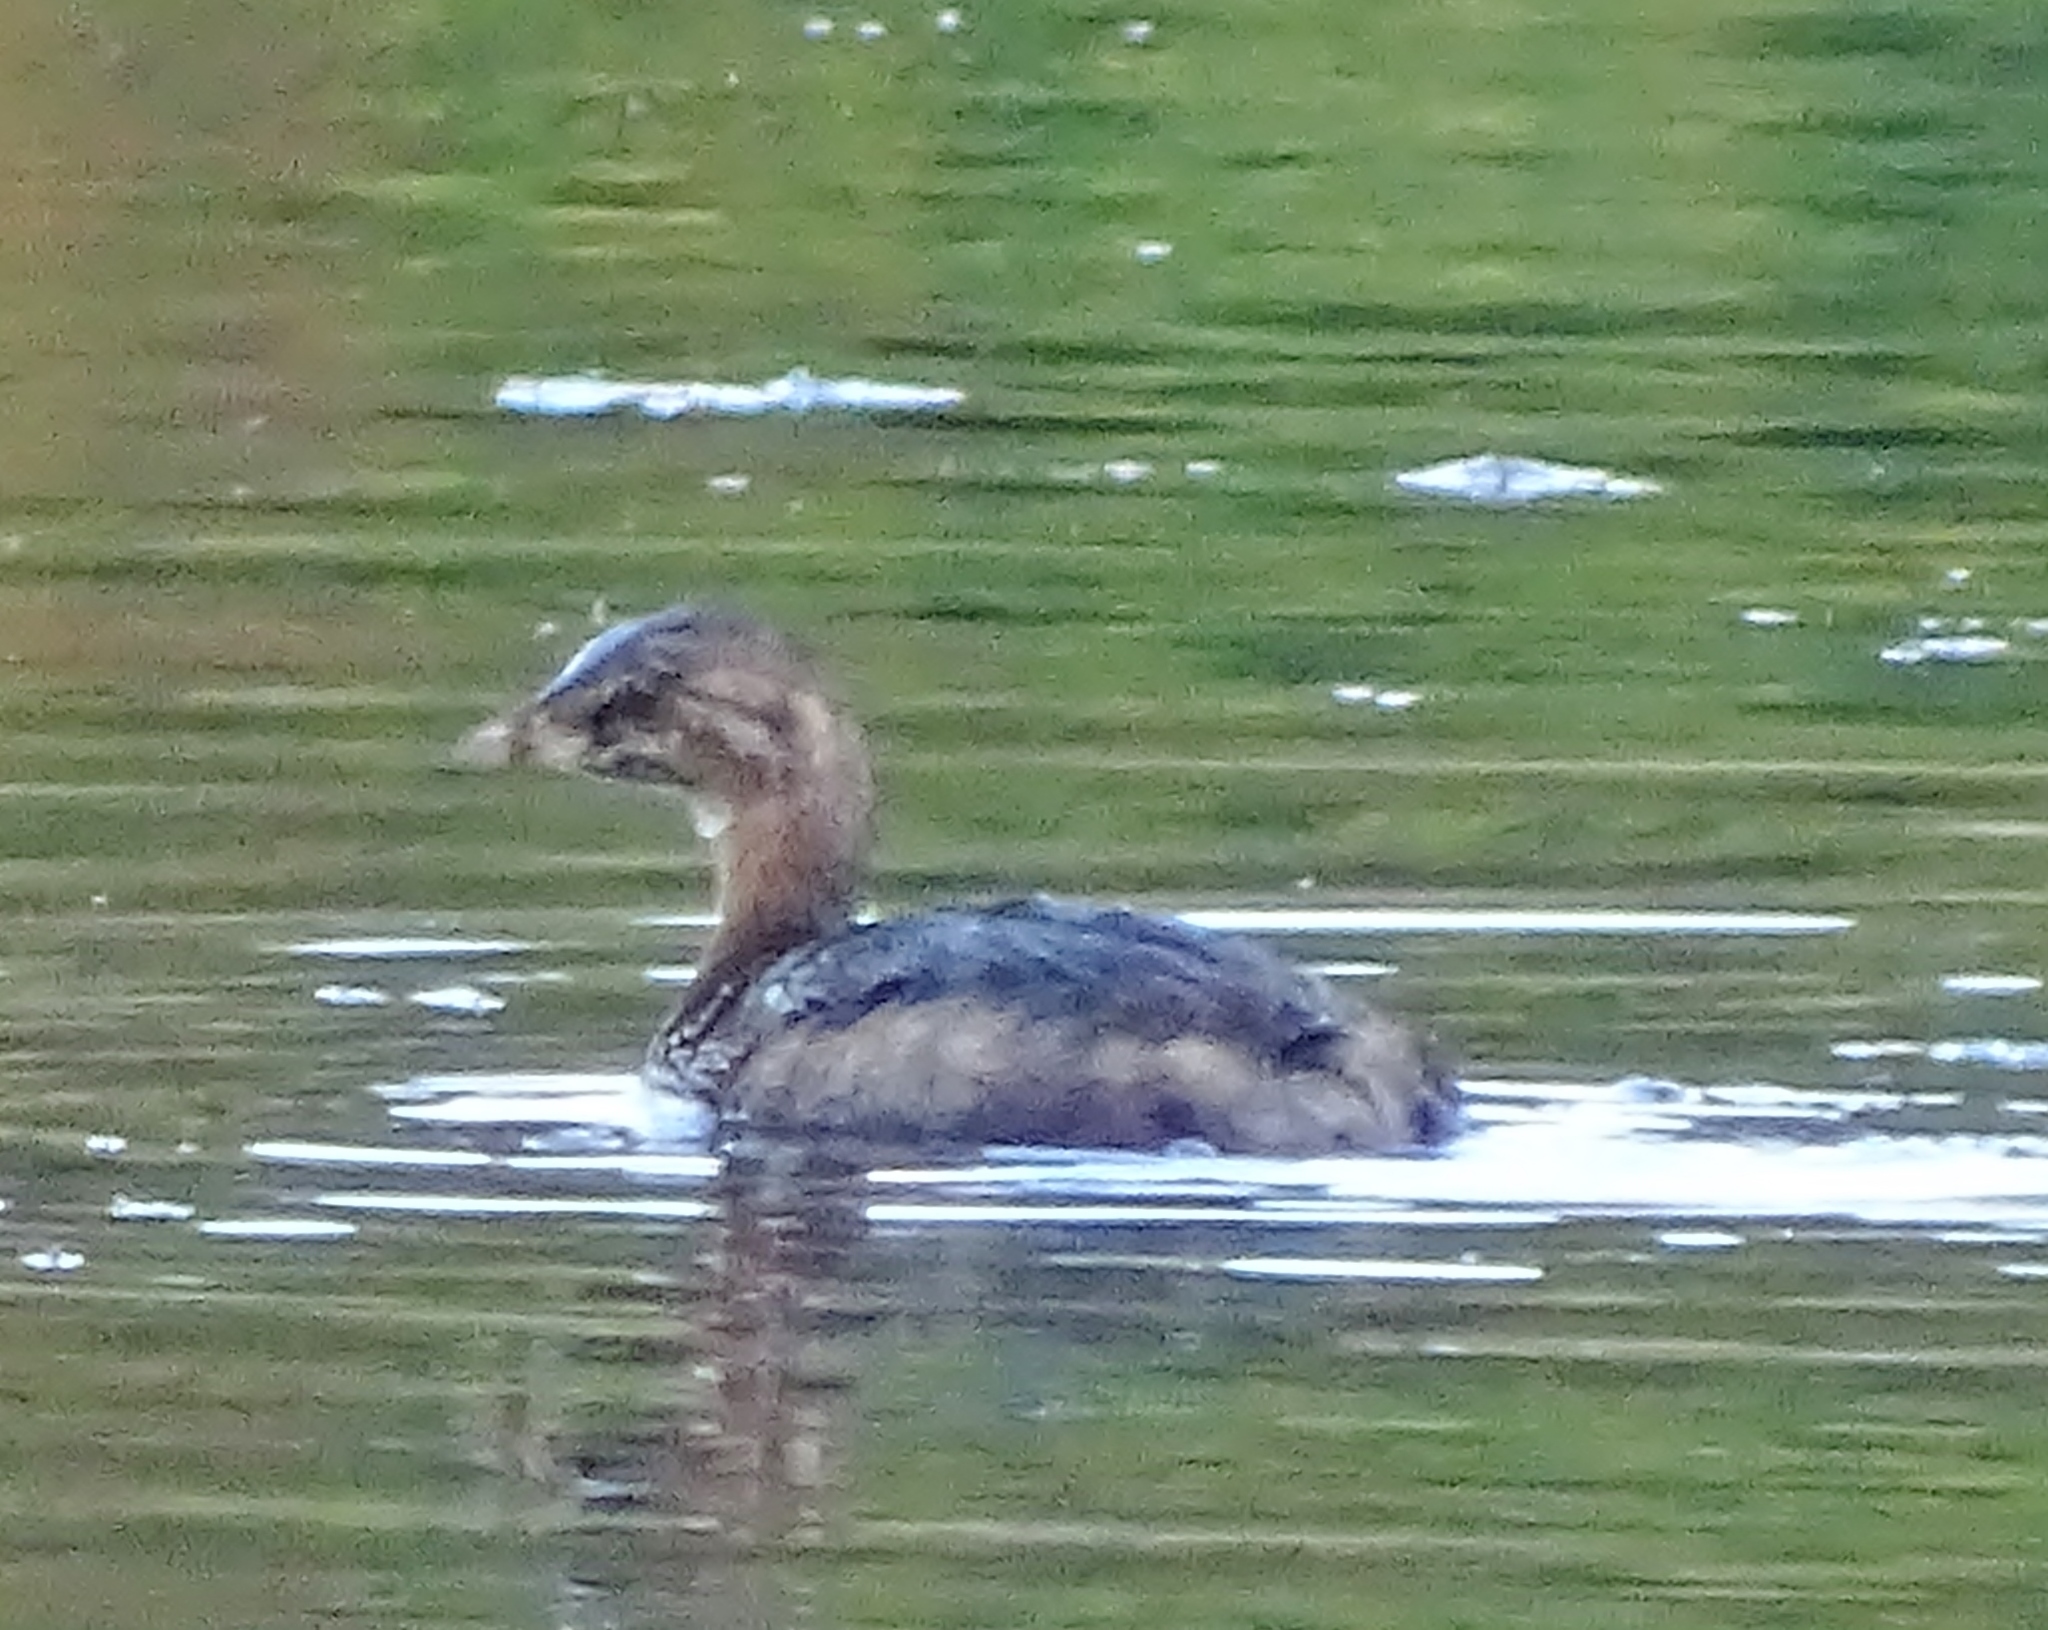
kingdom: Animalia
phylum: Chordata
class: Aves
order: Podicipediformes
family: Podicipedidae
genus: Podilymbus
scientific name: Podilymbus podiceps
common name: Pied-billed grebe
